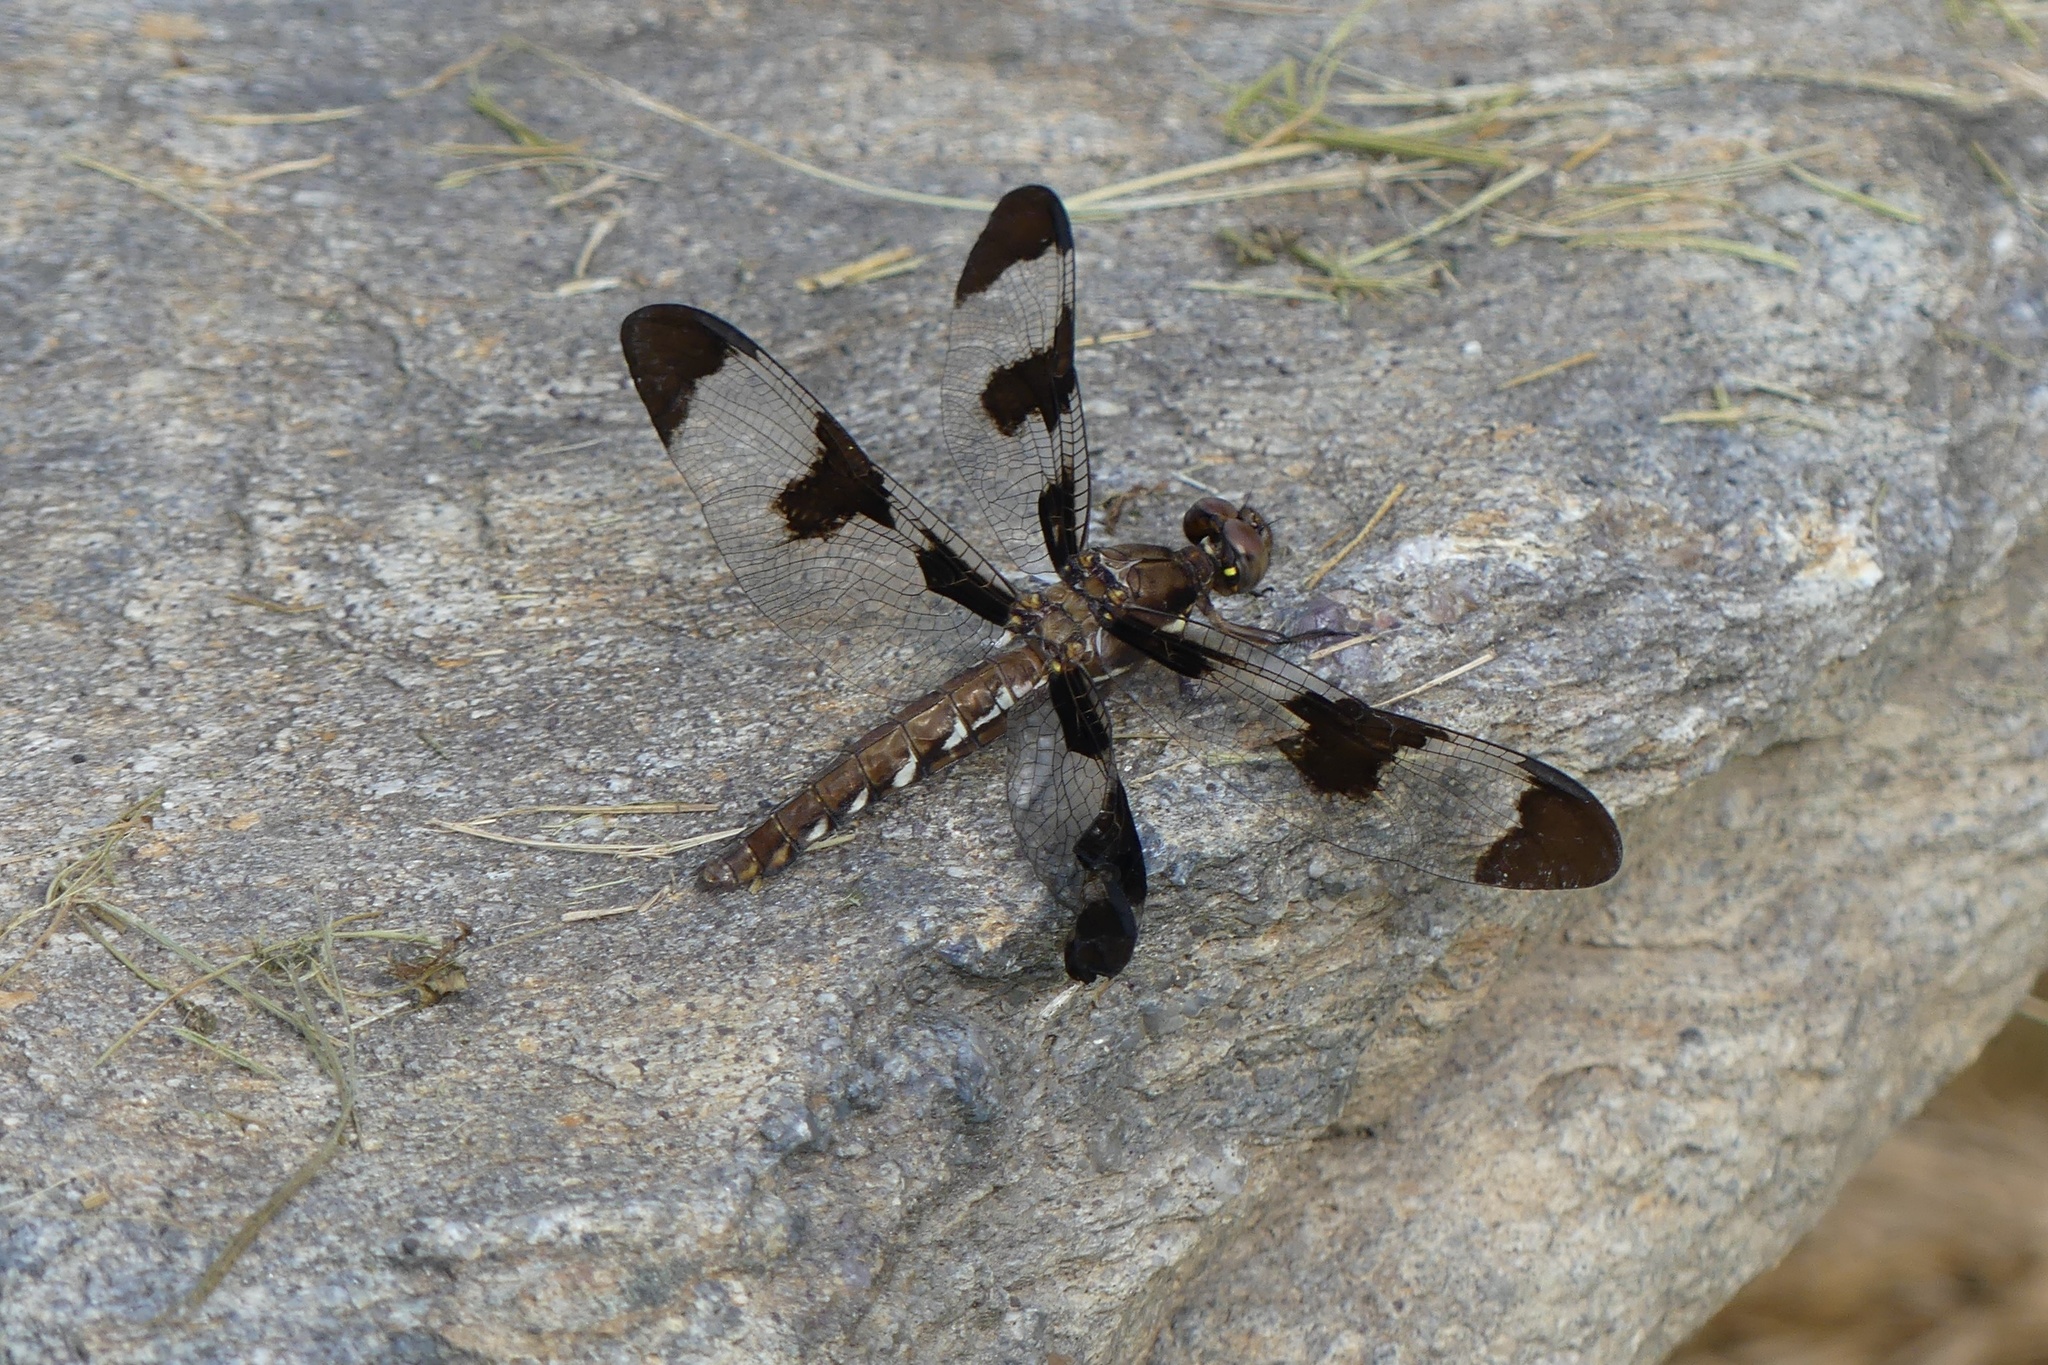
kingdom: Animalia
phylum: Arthropoda
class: Insecta
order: Odonata
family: Libellulidae
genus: Plathemis
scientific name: Plathemis lydia
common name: Common whitetail
